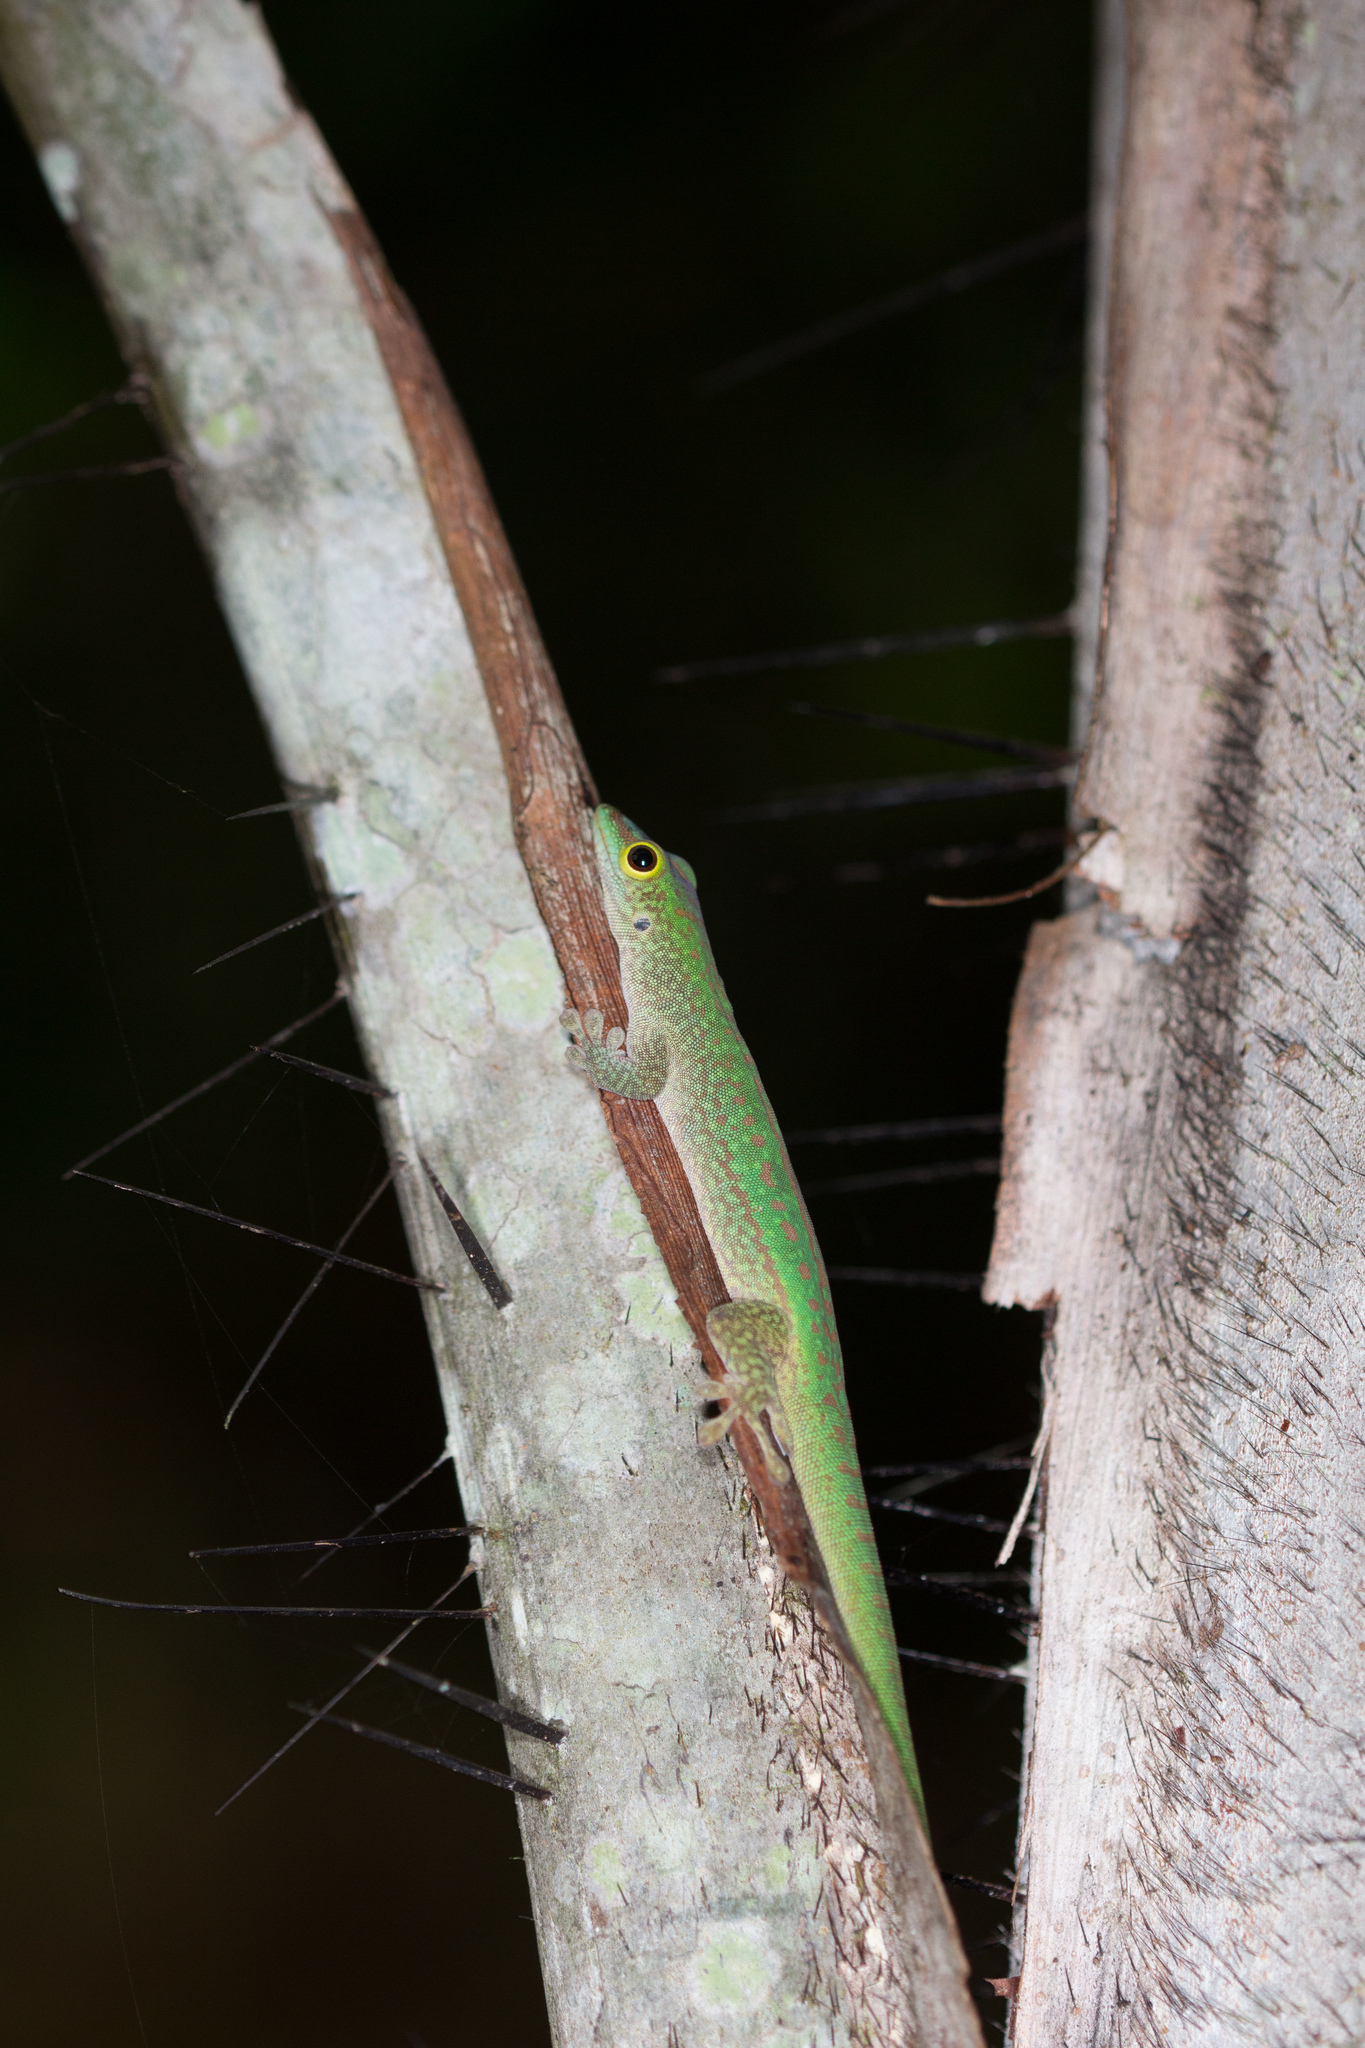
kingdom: Animalia
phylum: Chordata
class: Squamata
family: Gekkonidae
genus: Phelsuma
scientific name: Phelsuma sundbergi
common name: Seychelles giant day gecko
